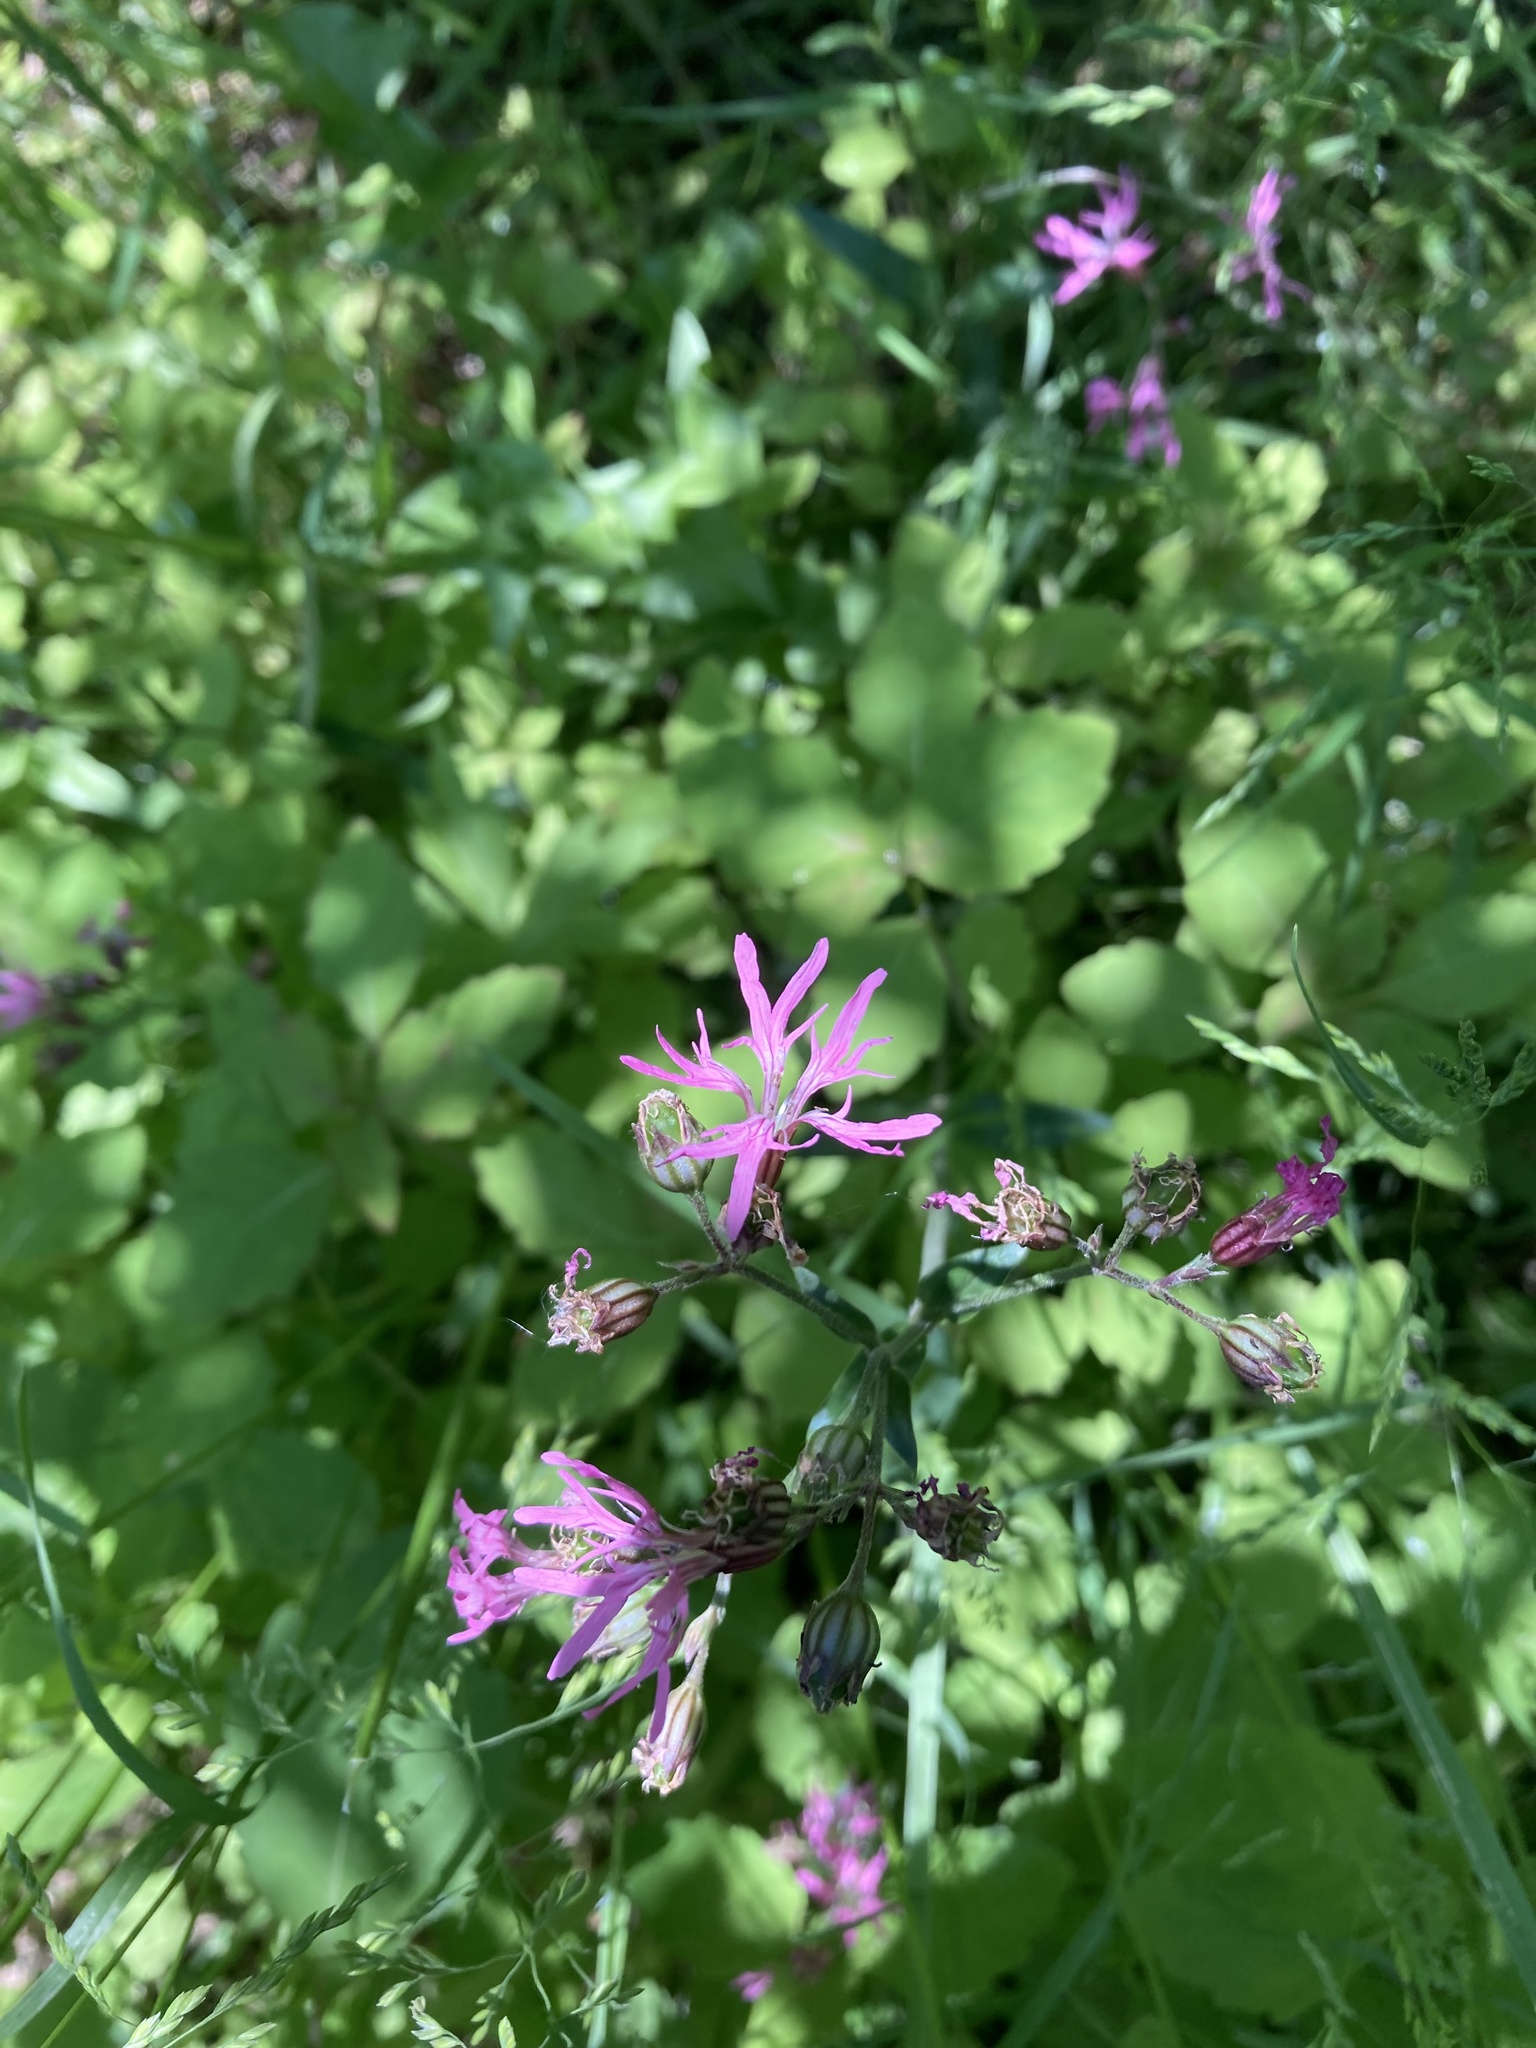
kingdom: Plantae
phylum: Tracheophyta
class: Magnoliopsida
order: Caryophyllales
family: Caryophyllaceae
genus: Silene
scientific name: Silene flos-cuculi
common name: Ragged-robin
